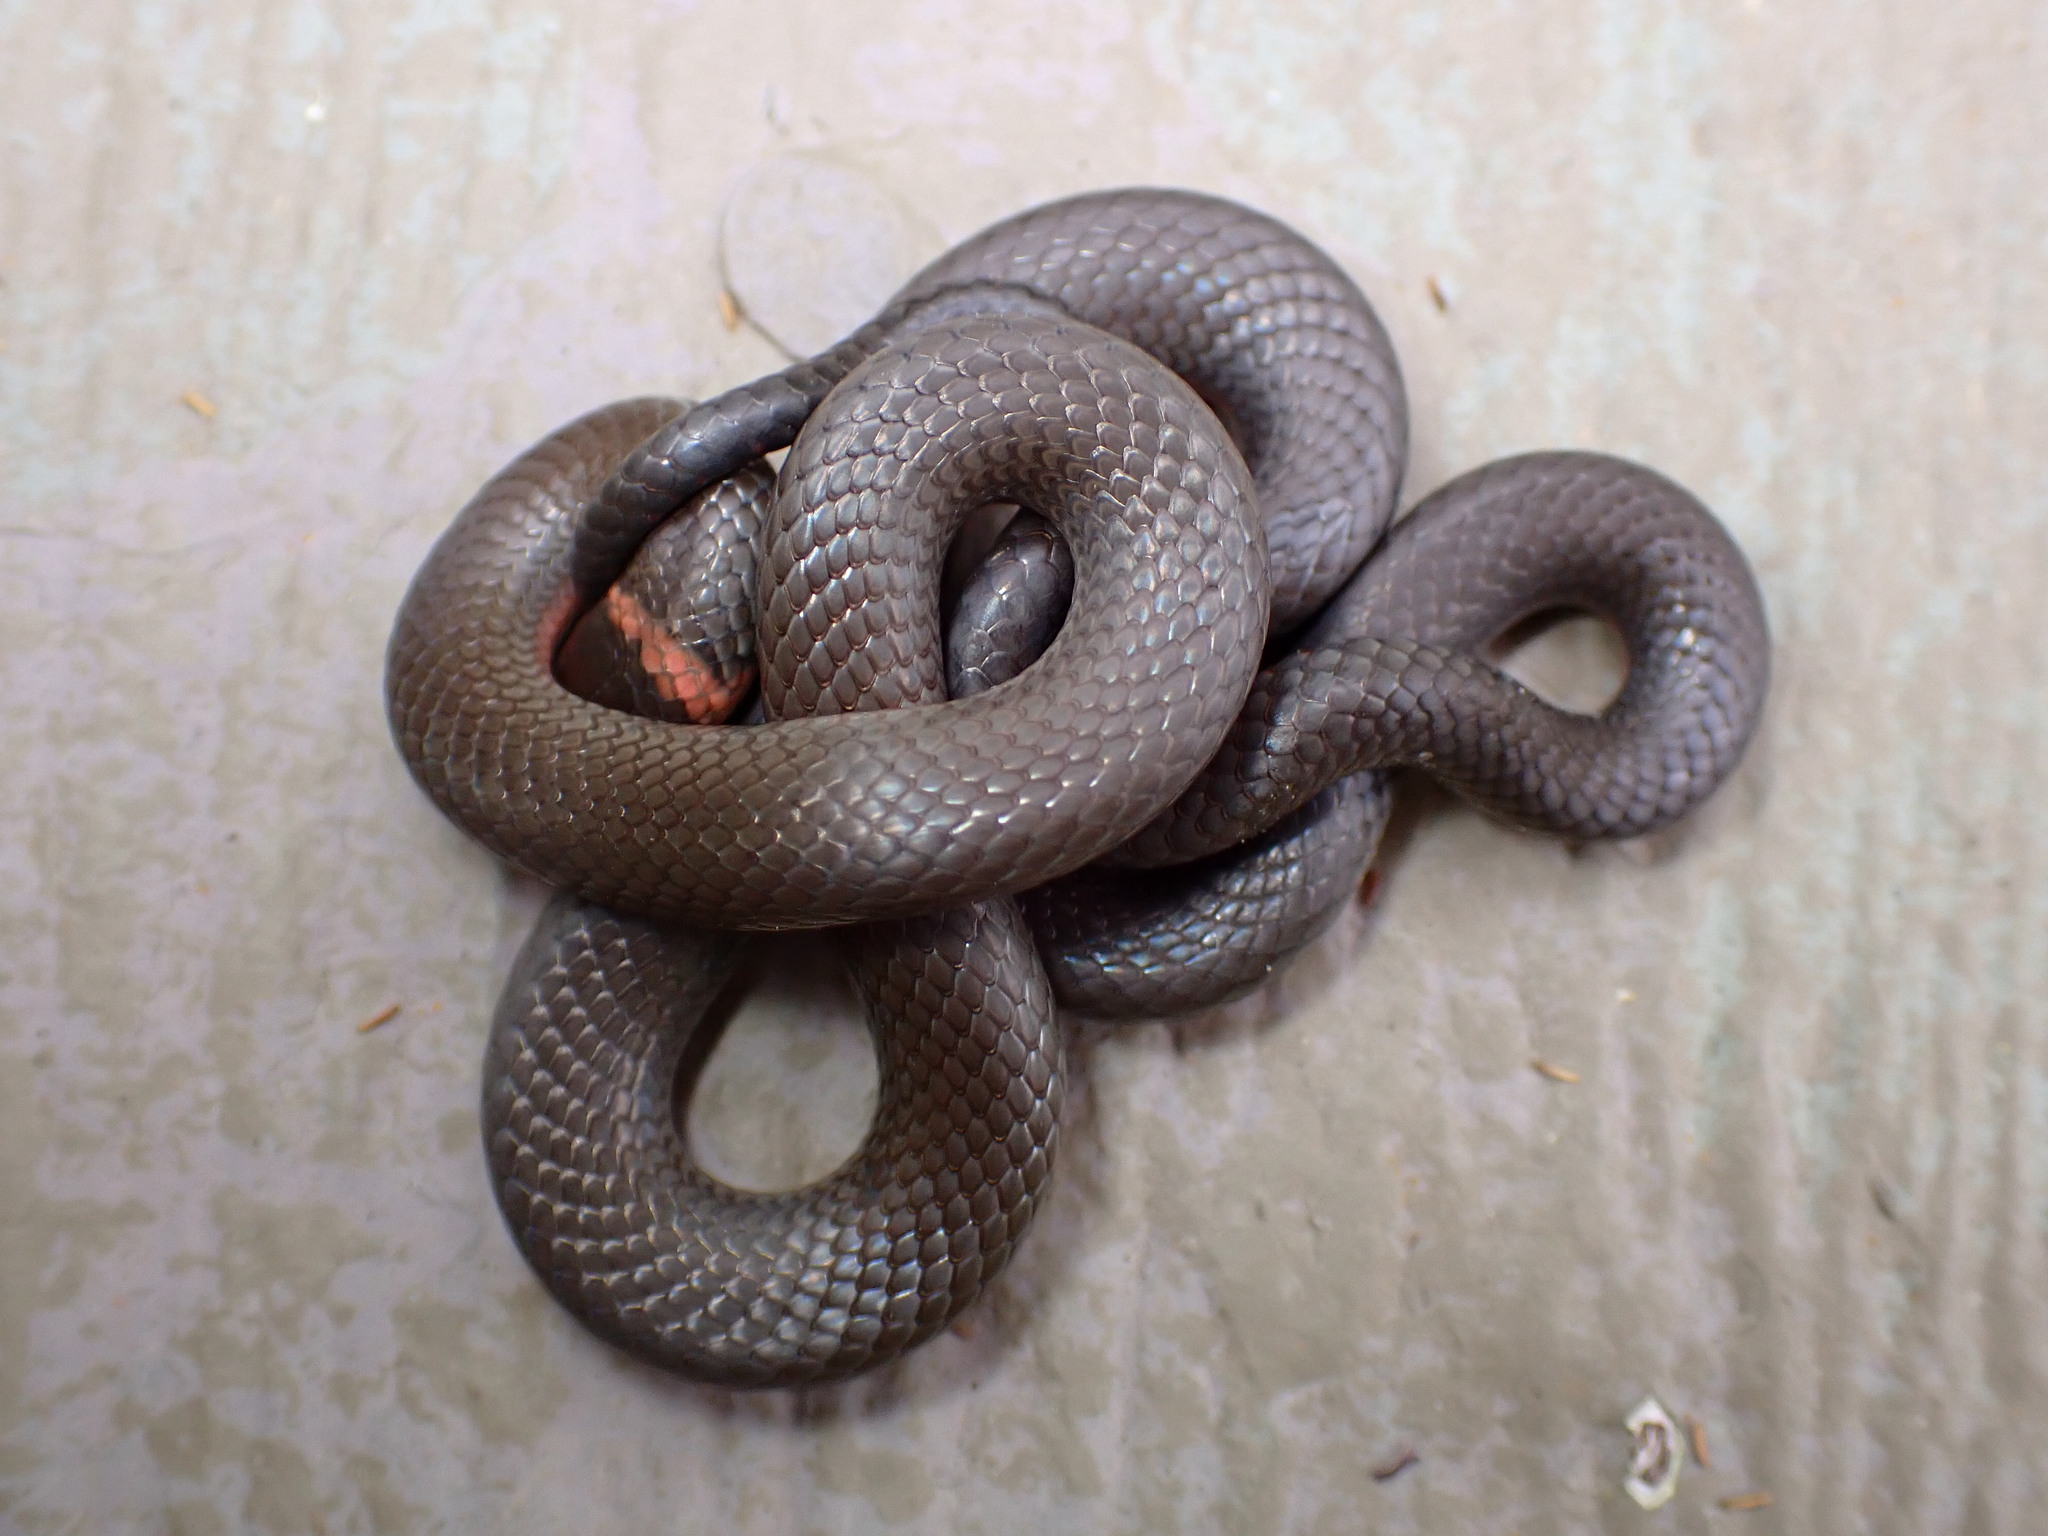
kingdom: Animalia
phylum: Chordata
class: Squamata
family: Colubridae
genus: Diadophis
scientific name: Diadophis punctatus
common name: Ringneck snake
